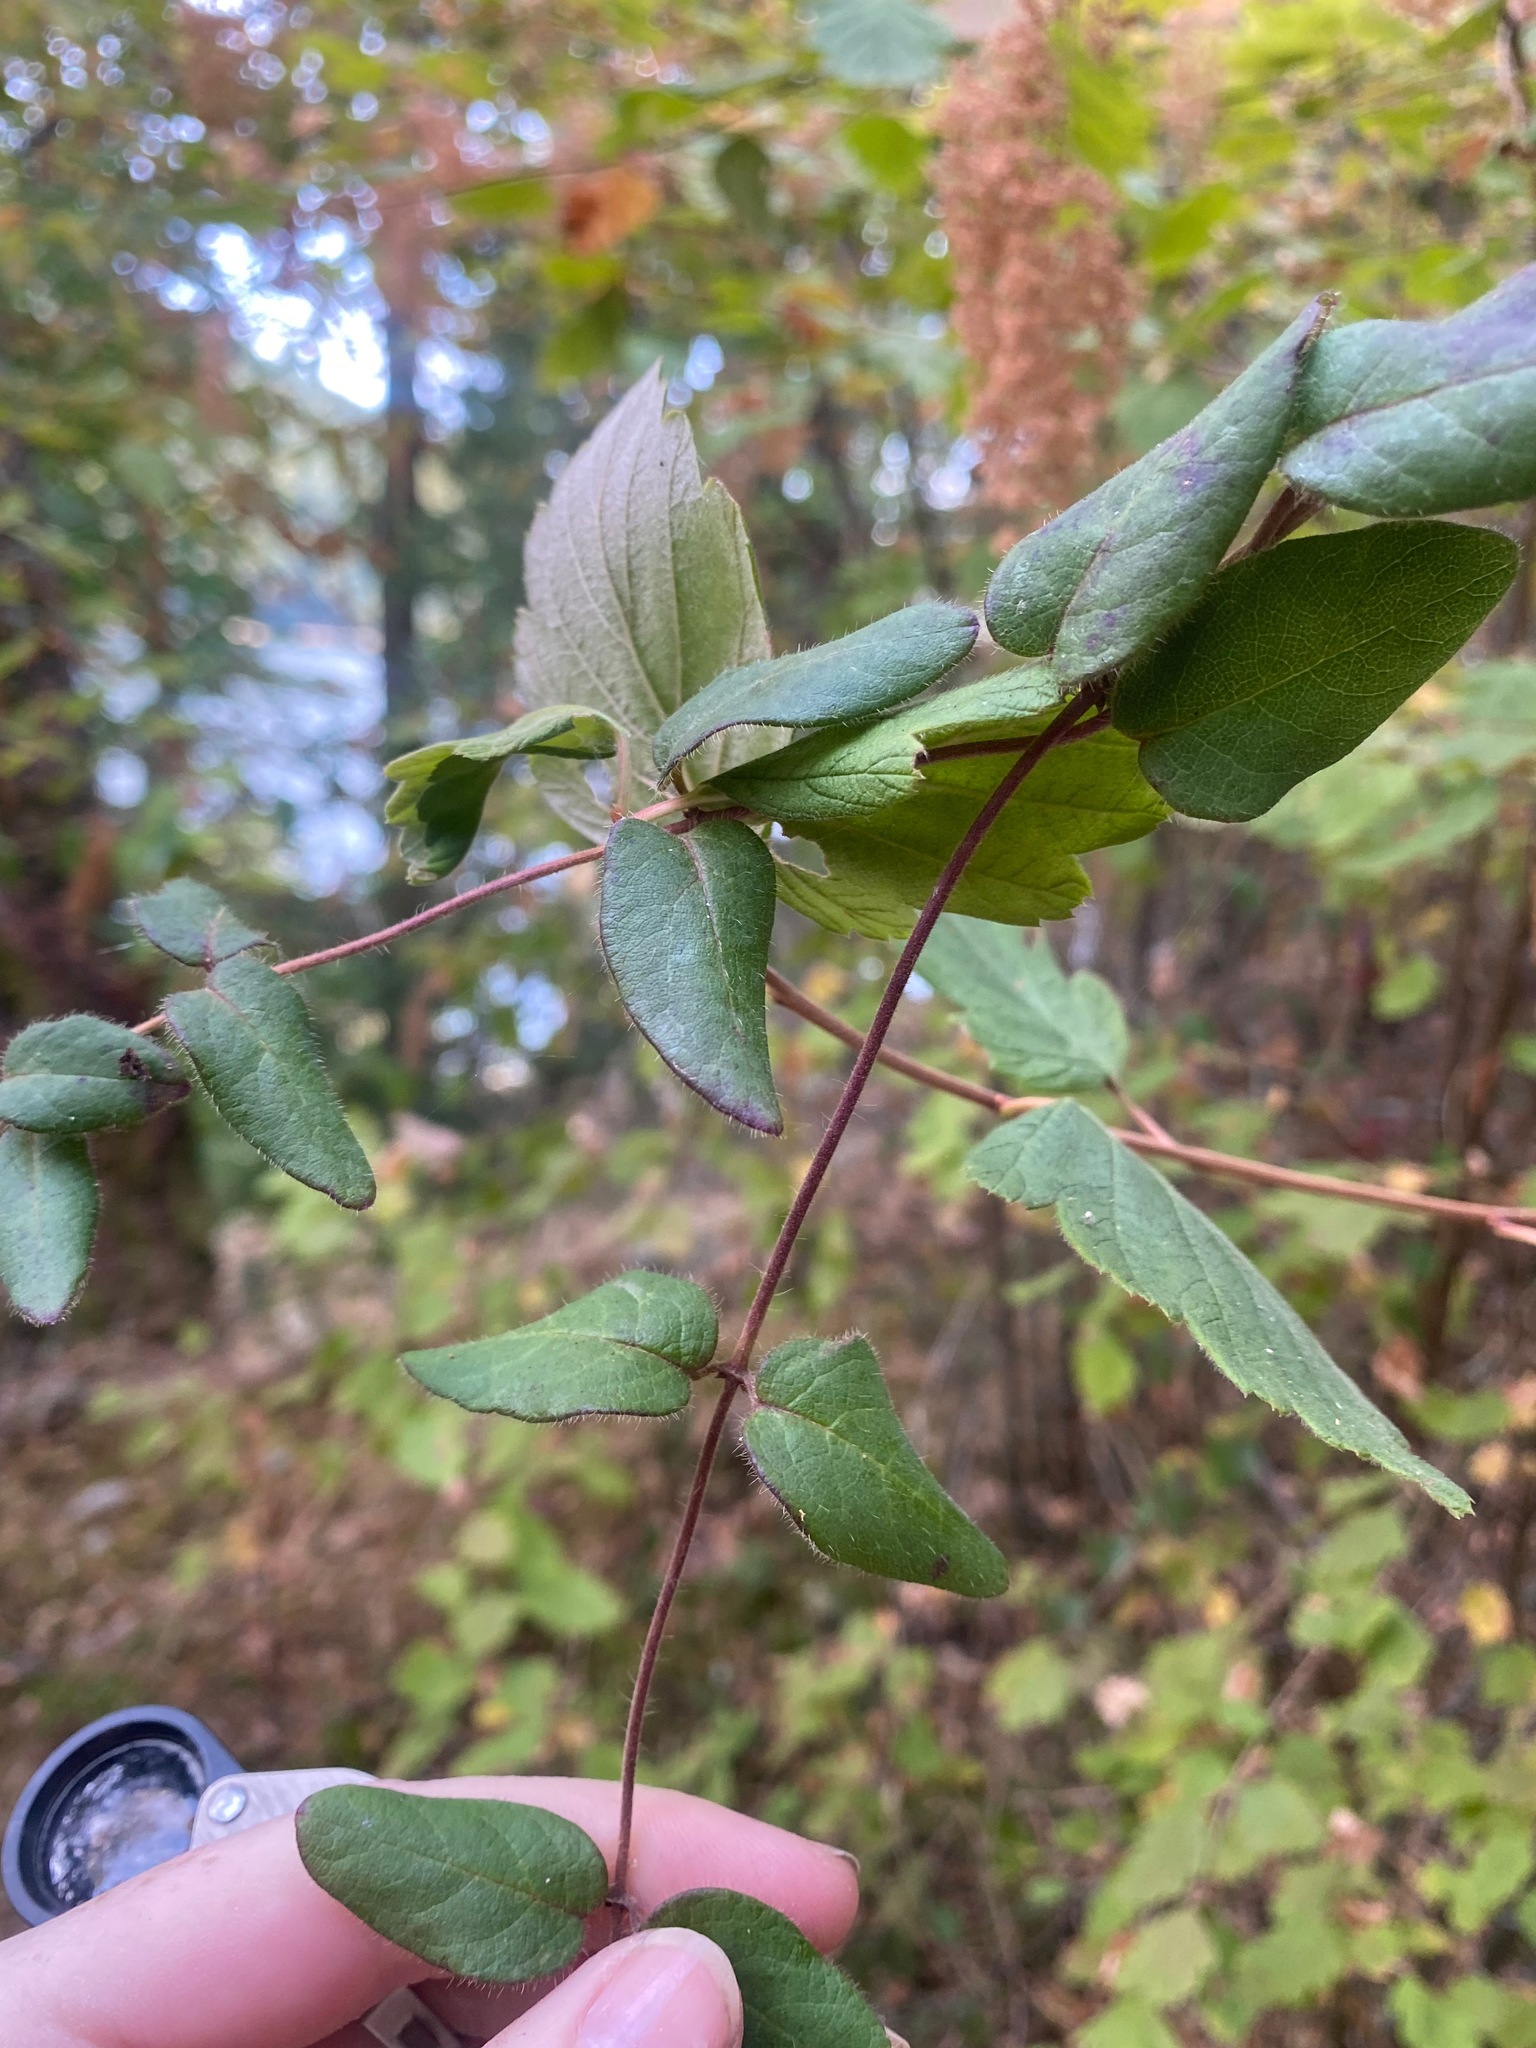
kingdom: Plantae
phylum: Tracheophyta
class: Magnoliopsida
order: Dipsacales
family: Caprifoliaceae
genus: Lonicera
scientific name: Lonicera hispidula
